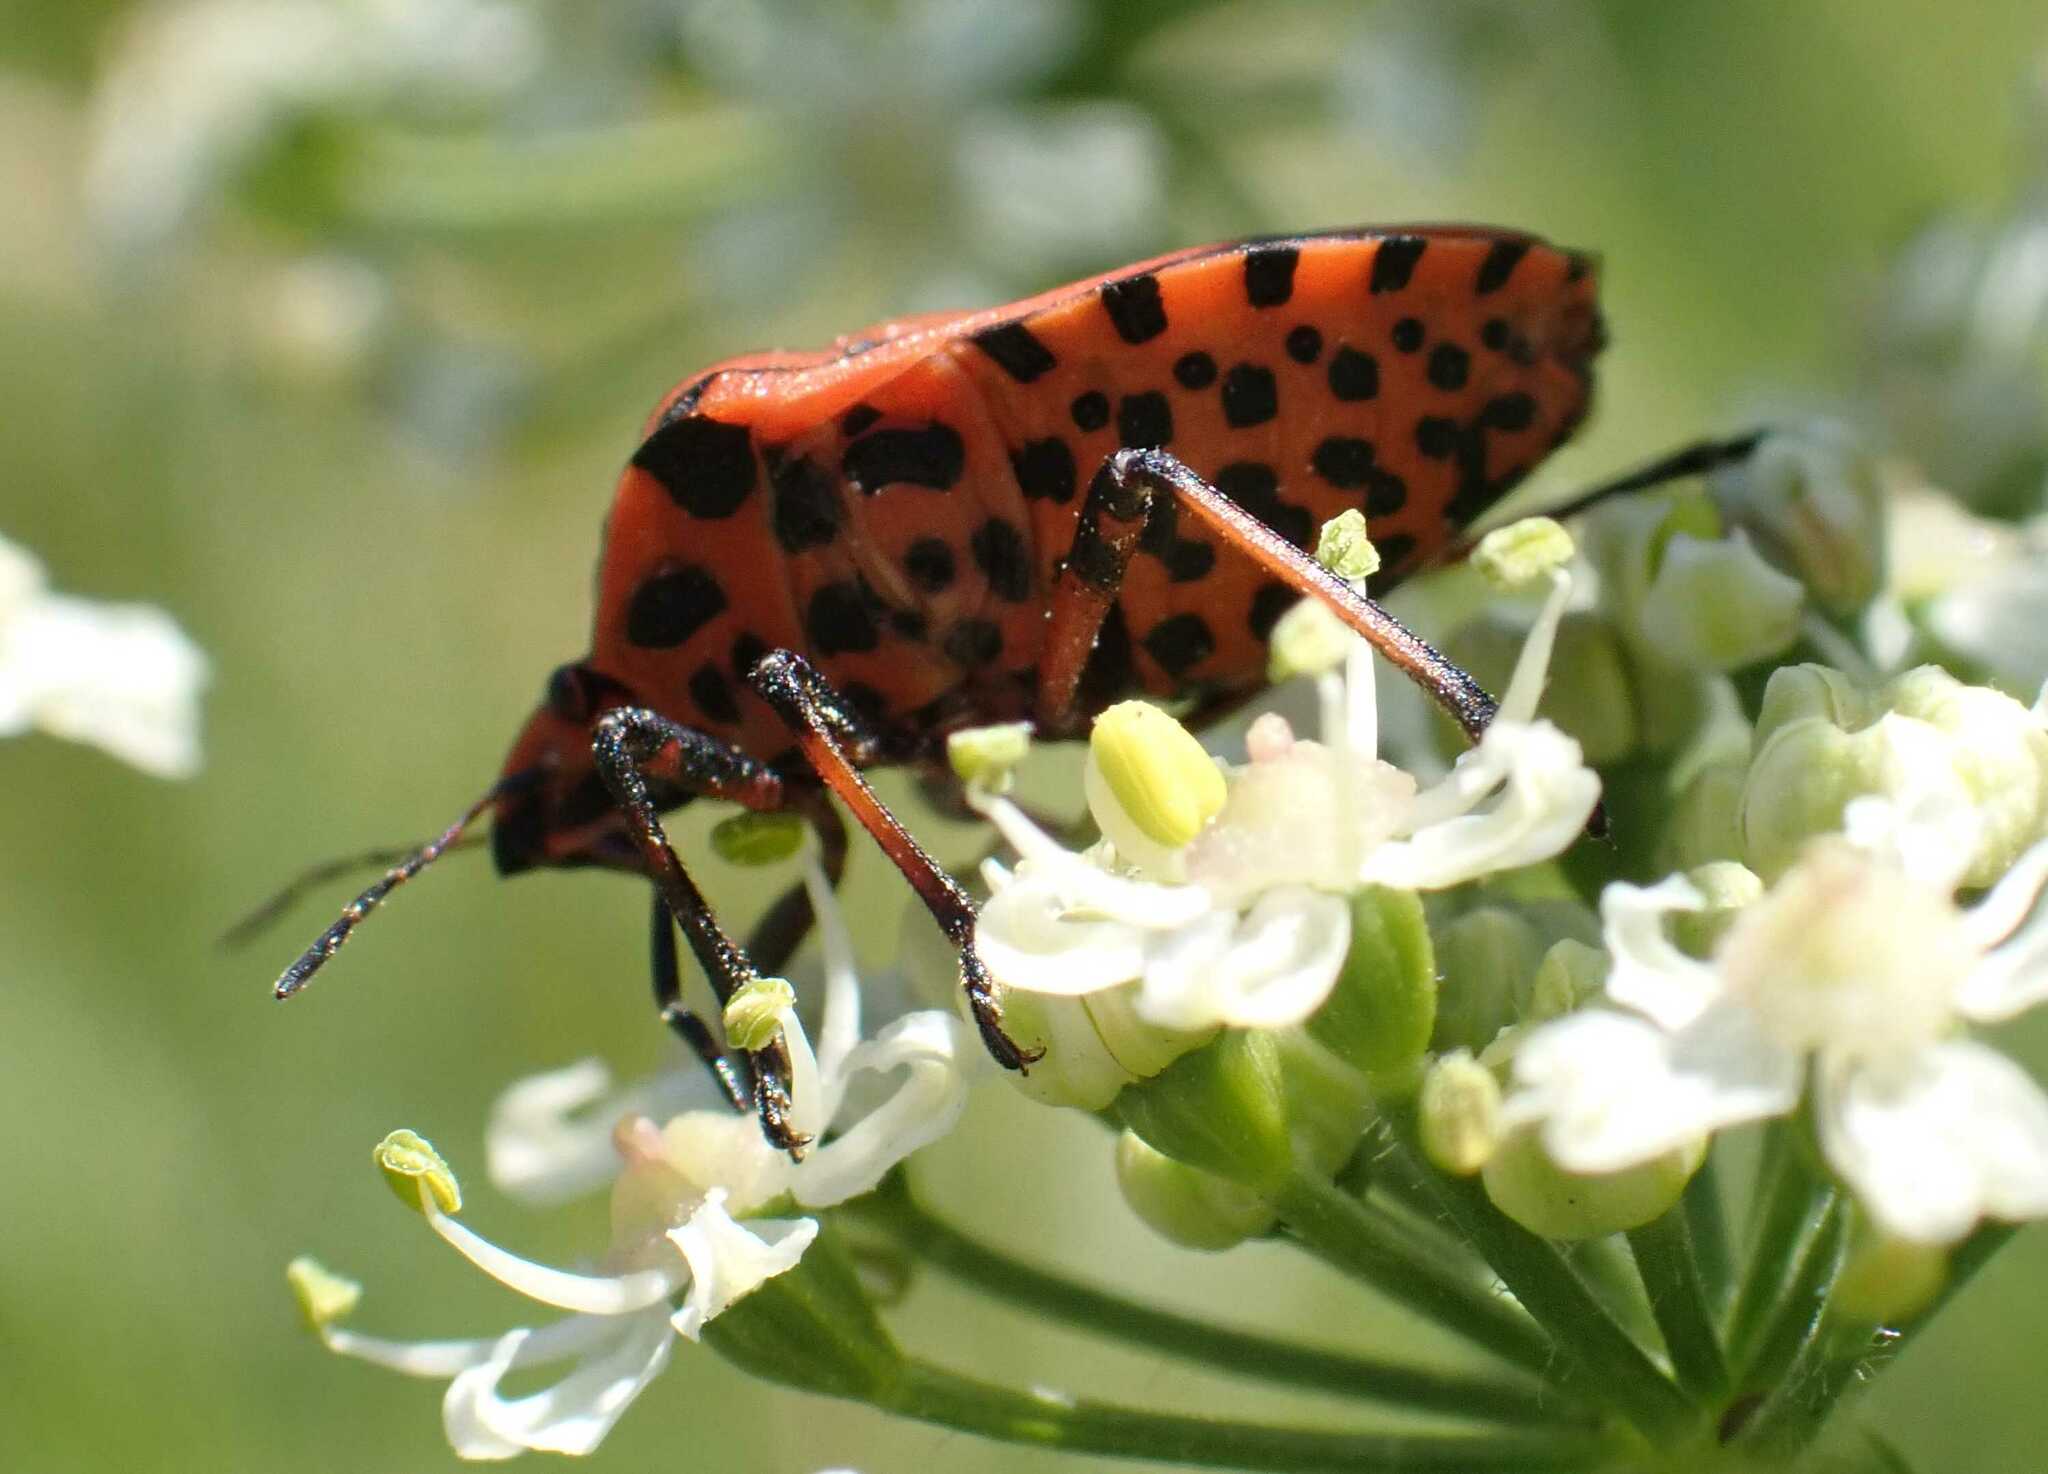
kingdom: Animalia
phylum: Arthropoda
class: Insecta
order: Hemiptera
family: Pentatomidae
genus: Graphosoma
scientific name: Graphosoma italicum
